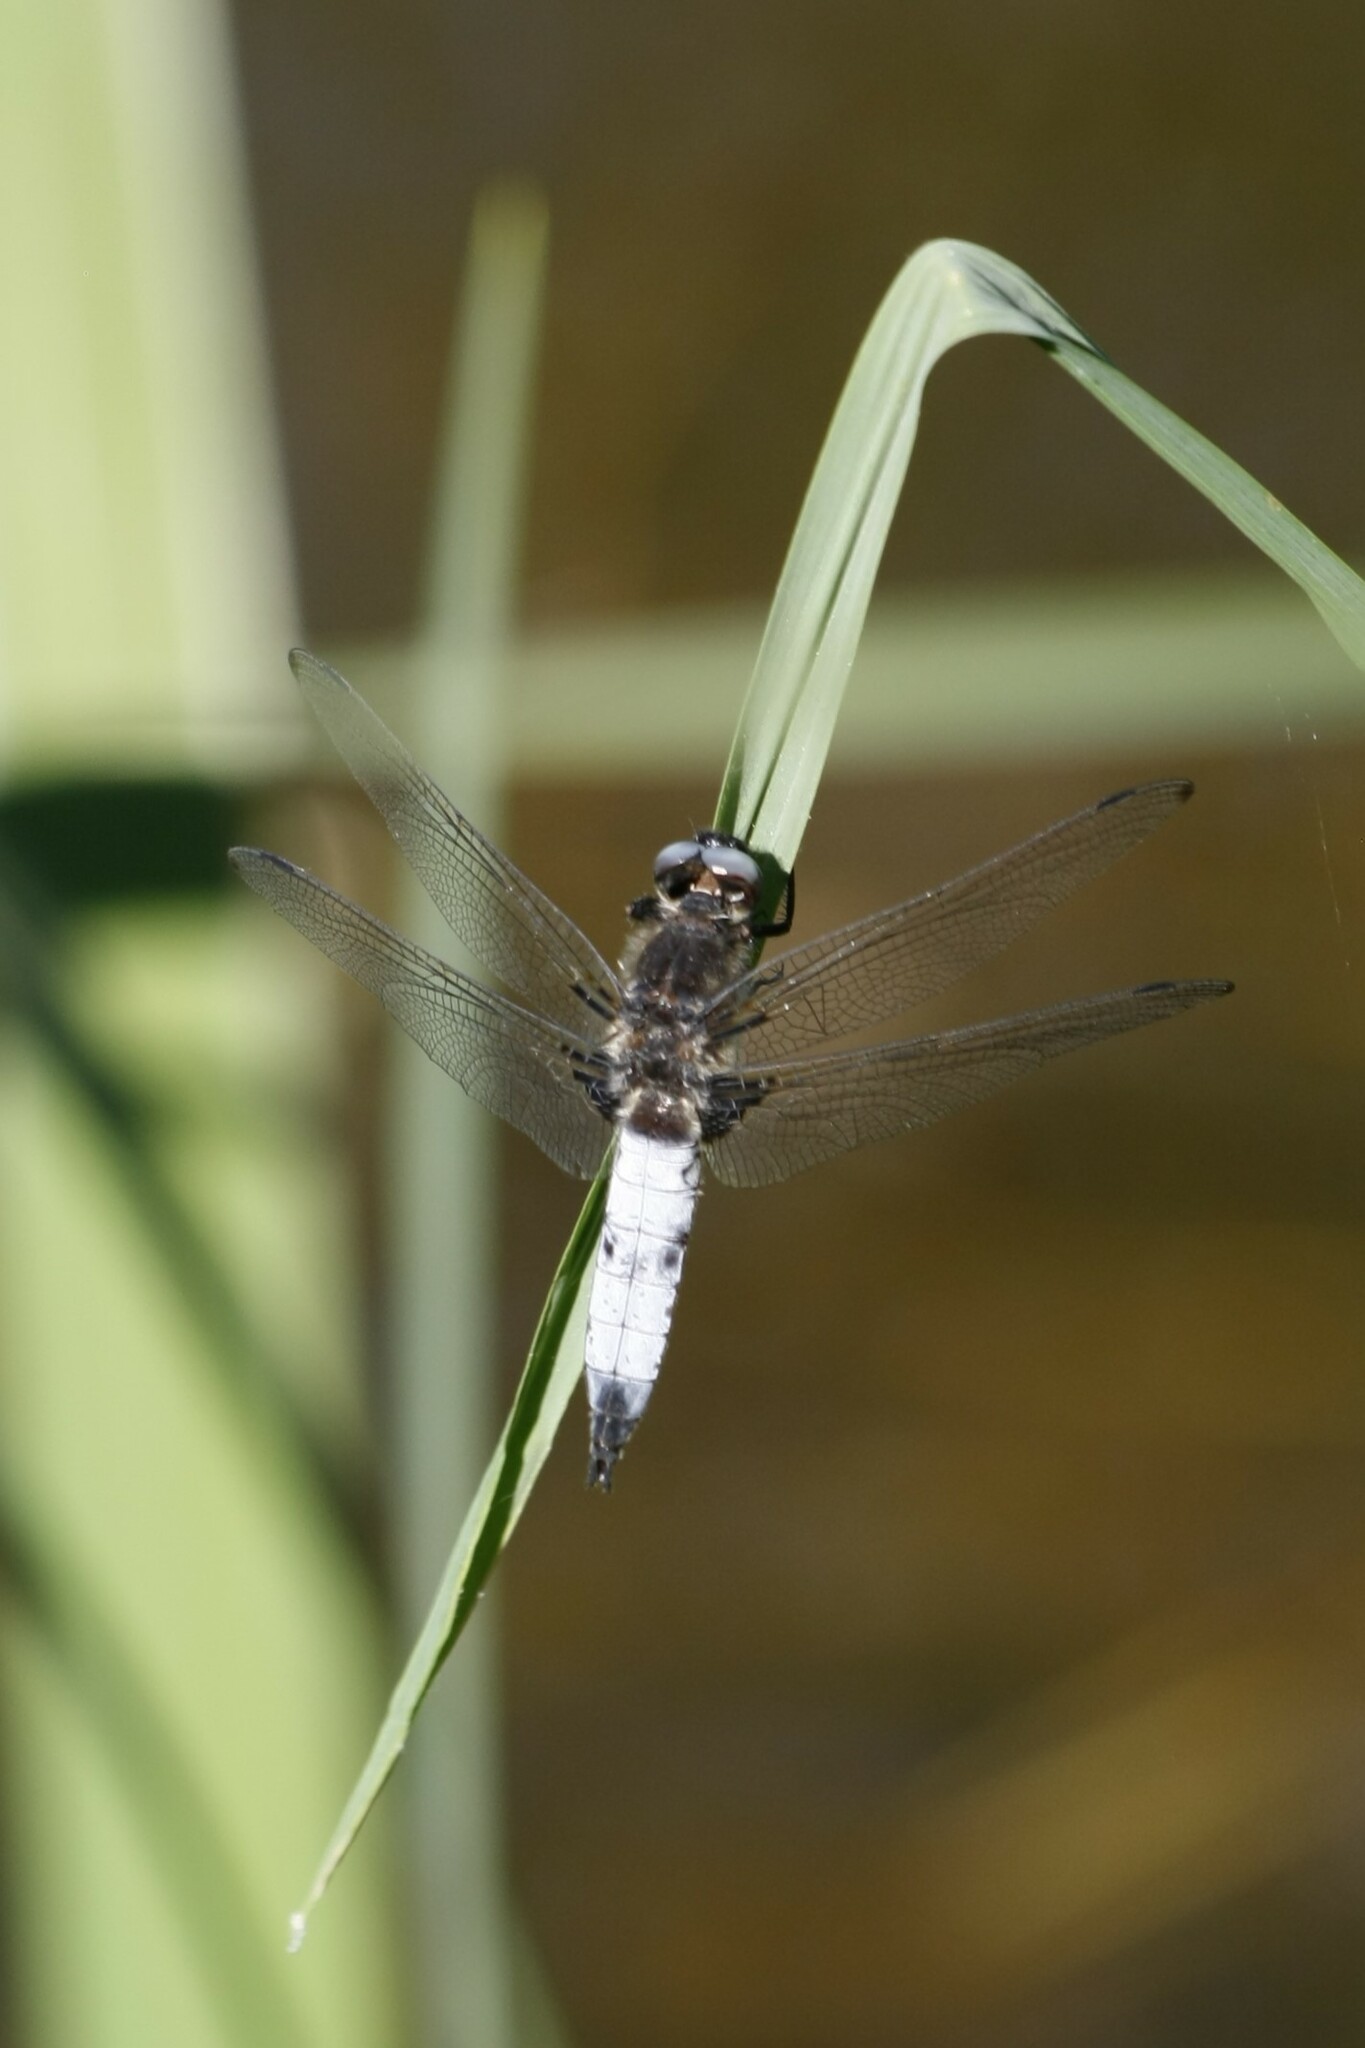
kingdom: Animalia
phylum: Arthropoda
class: Insecta
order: Odonata
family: Libellulidae
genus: Libellula
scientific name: Libellula fulva
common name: Blue chaser
